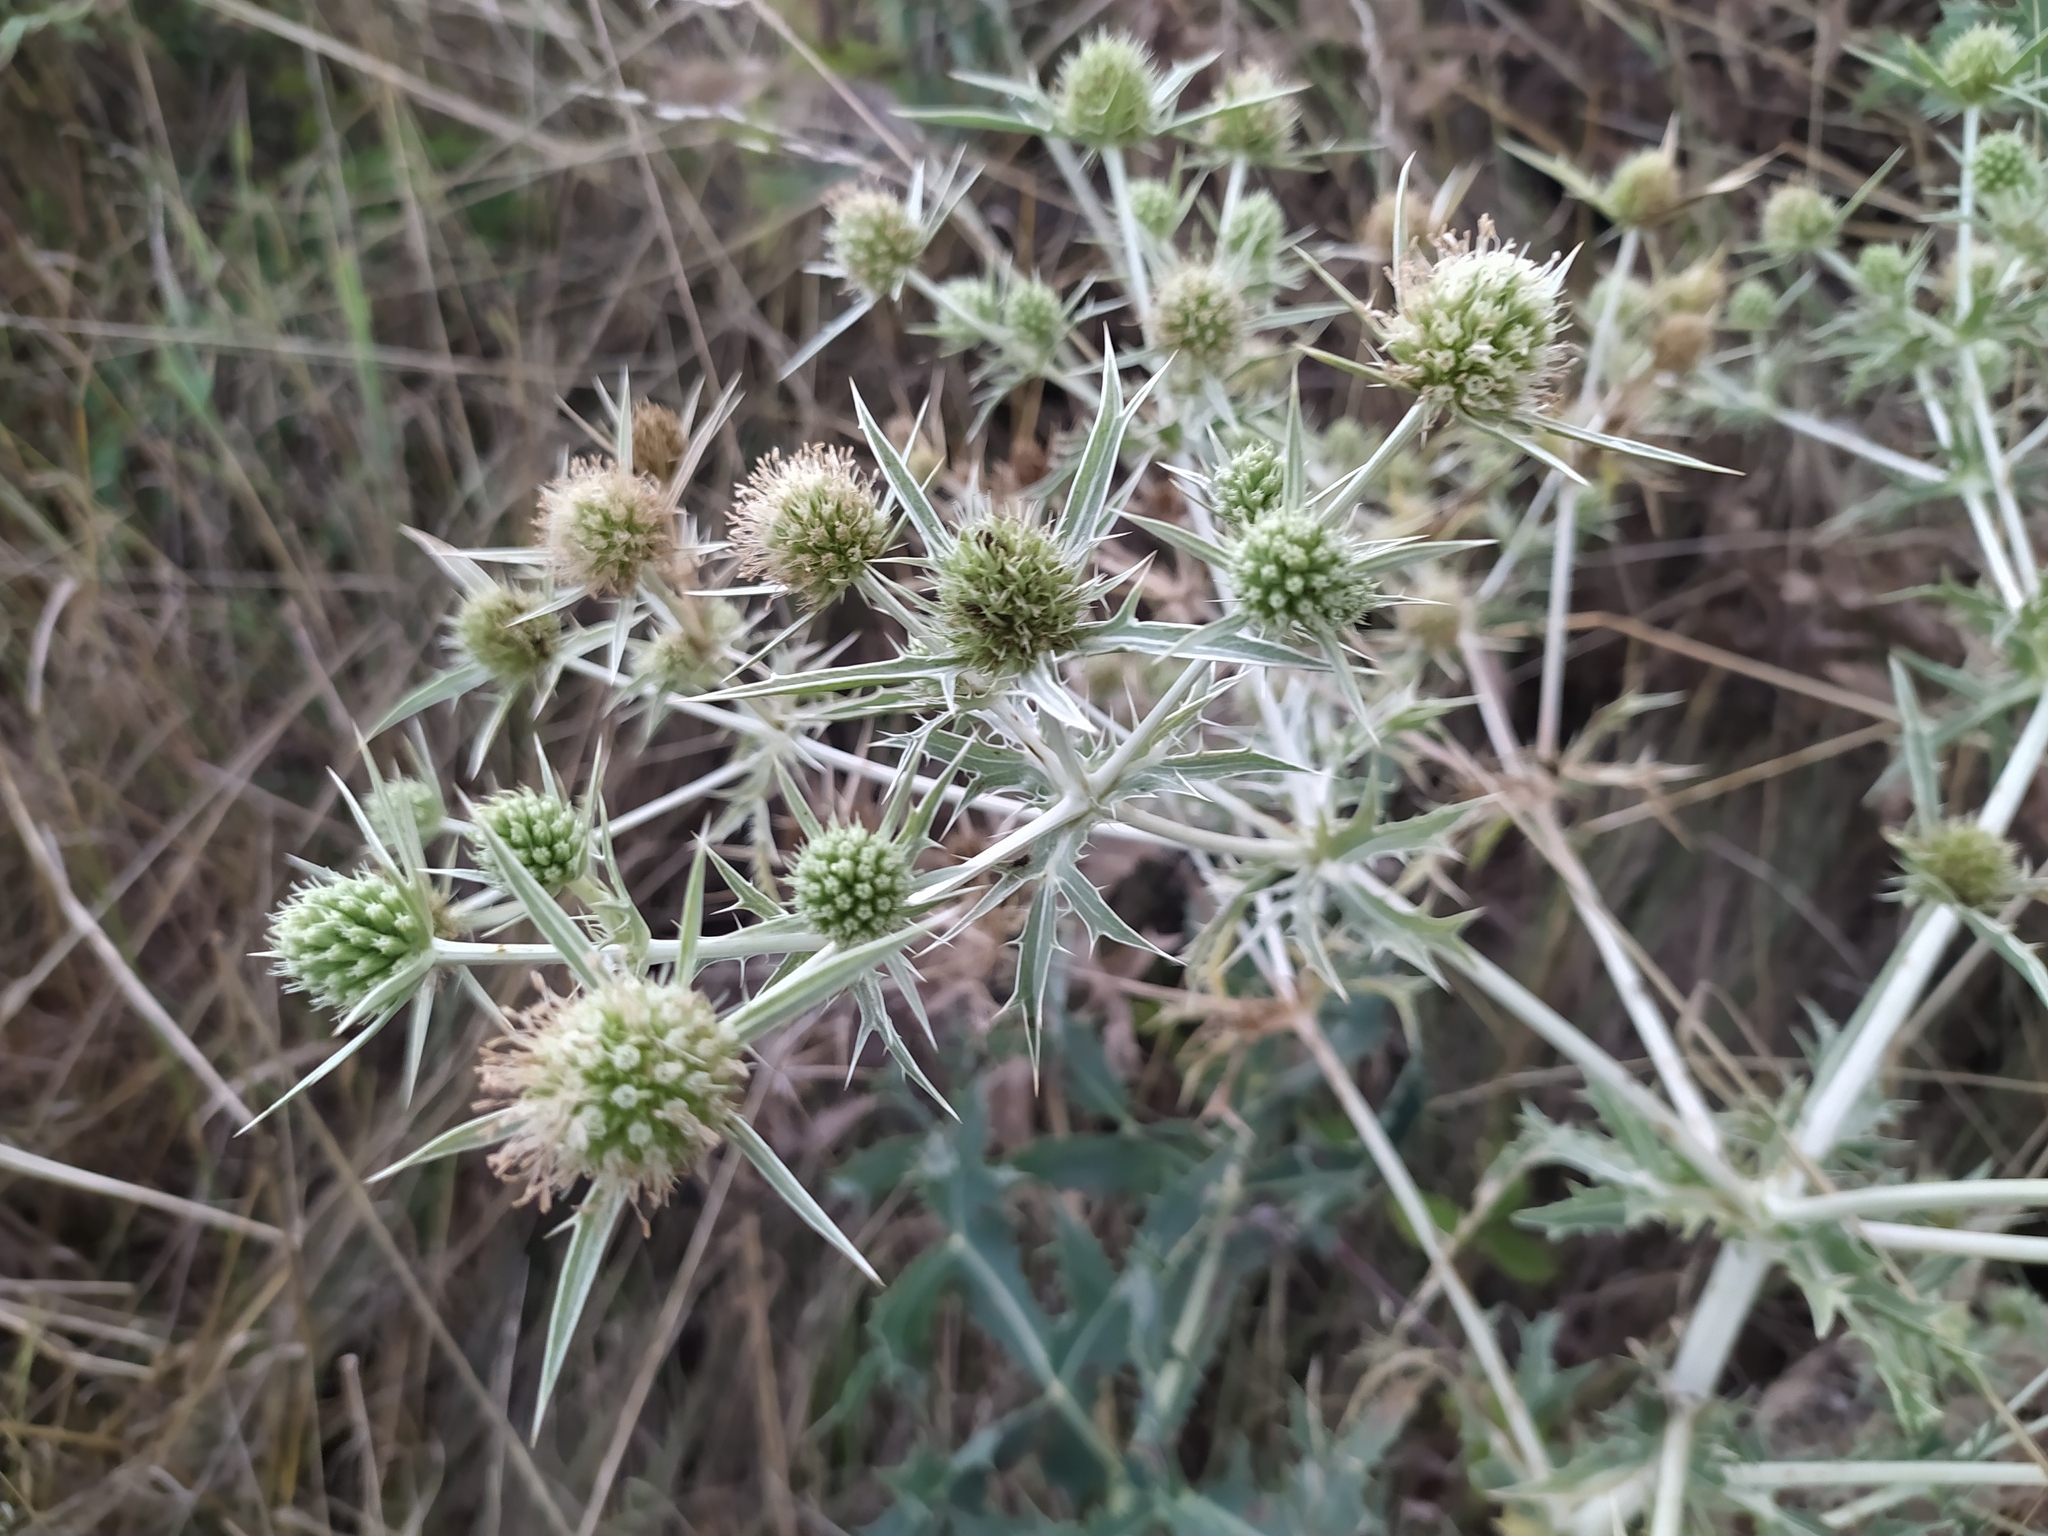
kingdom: Plantae
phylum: Tracheophyta
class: Magnoliopsida
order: Apiales
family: Apiaceae
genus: Eryngium
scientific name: Eryngium campestre
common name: Field eryngo
